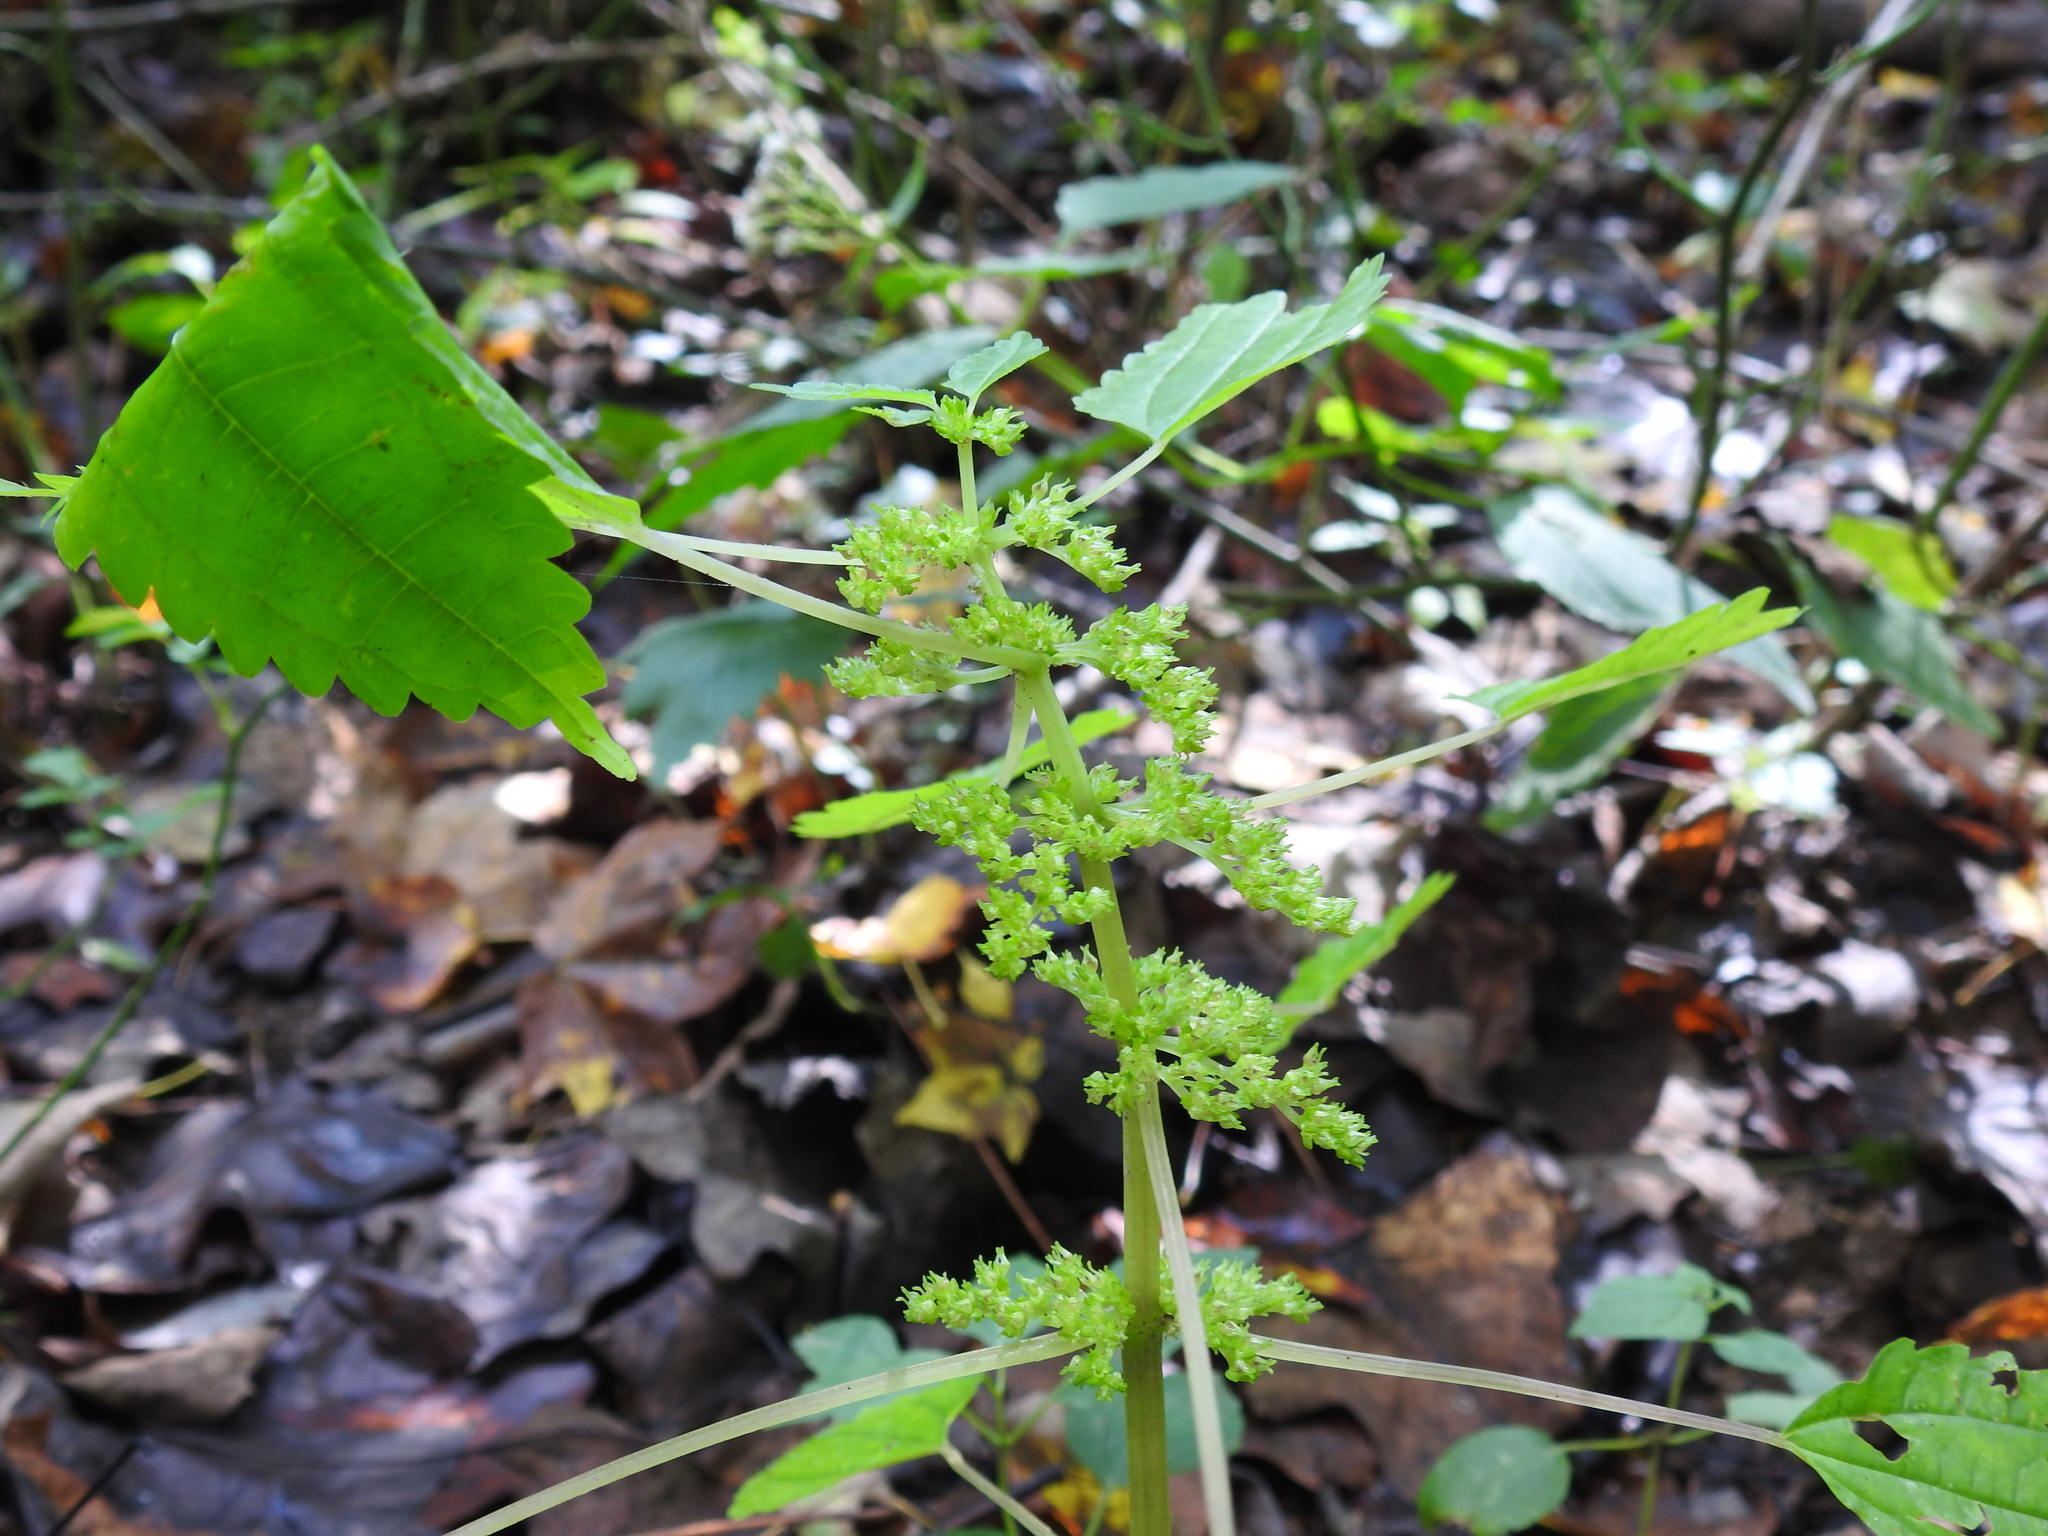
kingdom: Plantae
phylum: Tracheophyta
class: Magnoliopsida
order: Rosales
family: Urticaceae
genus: Pilea
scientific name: Pilea pumila
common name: Clearweed
